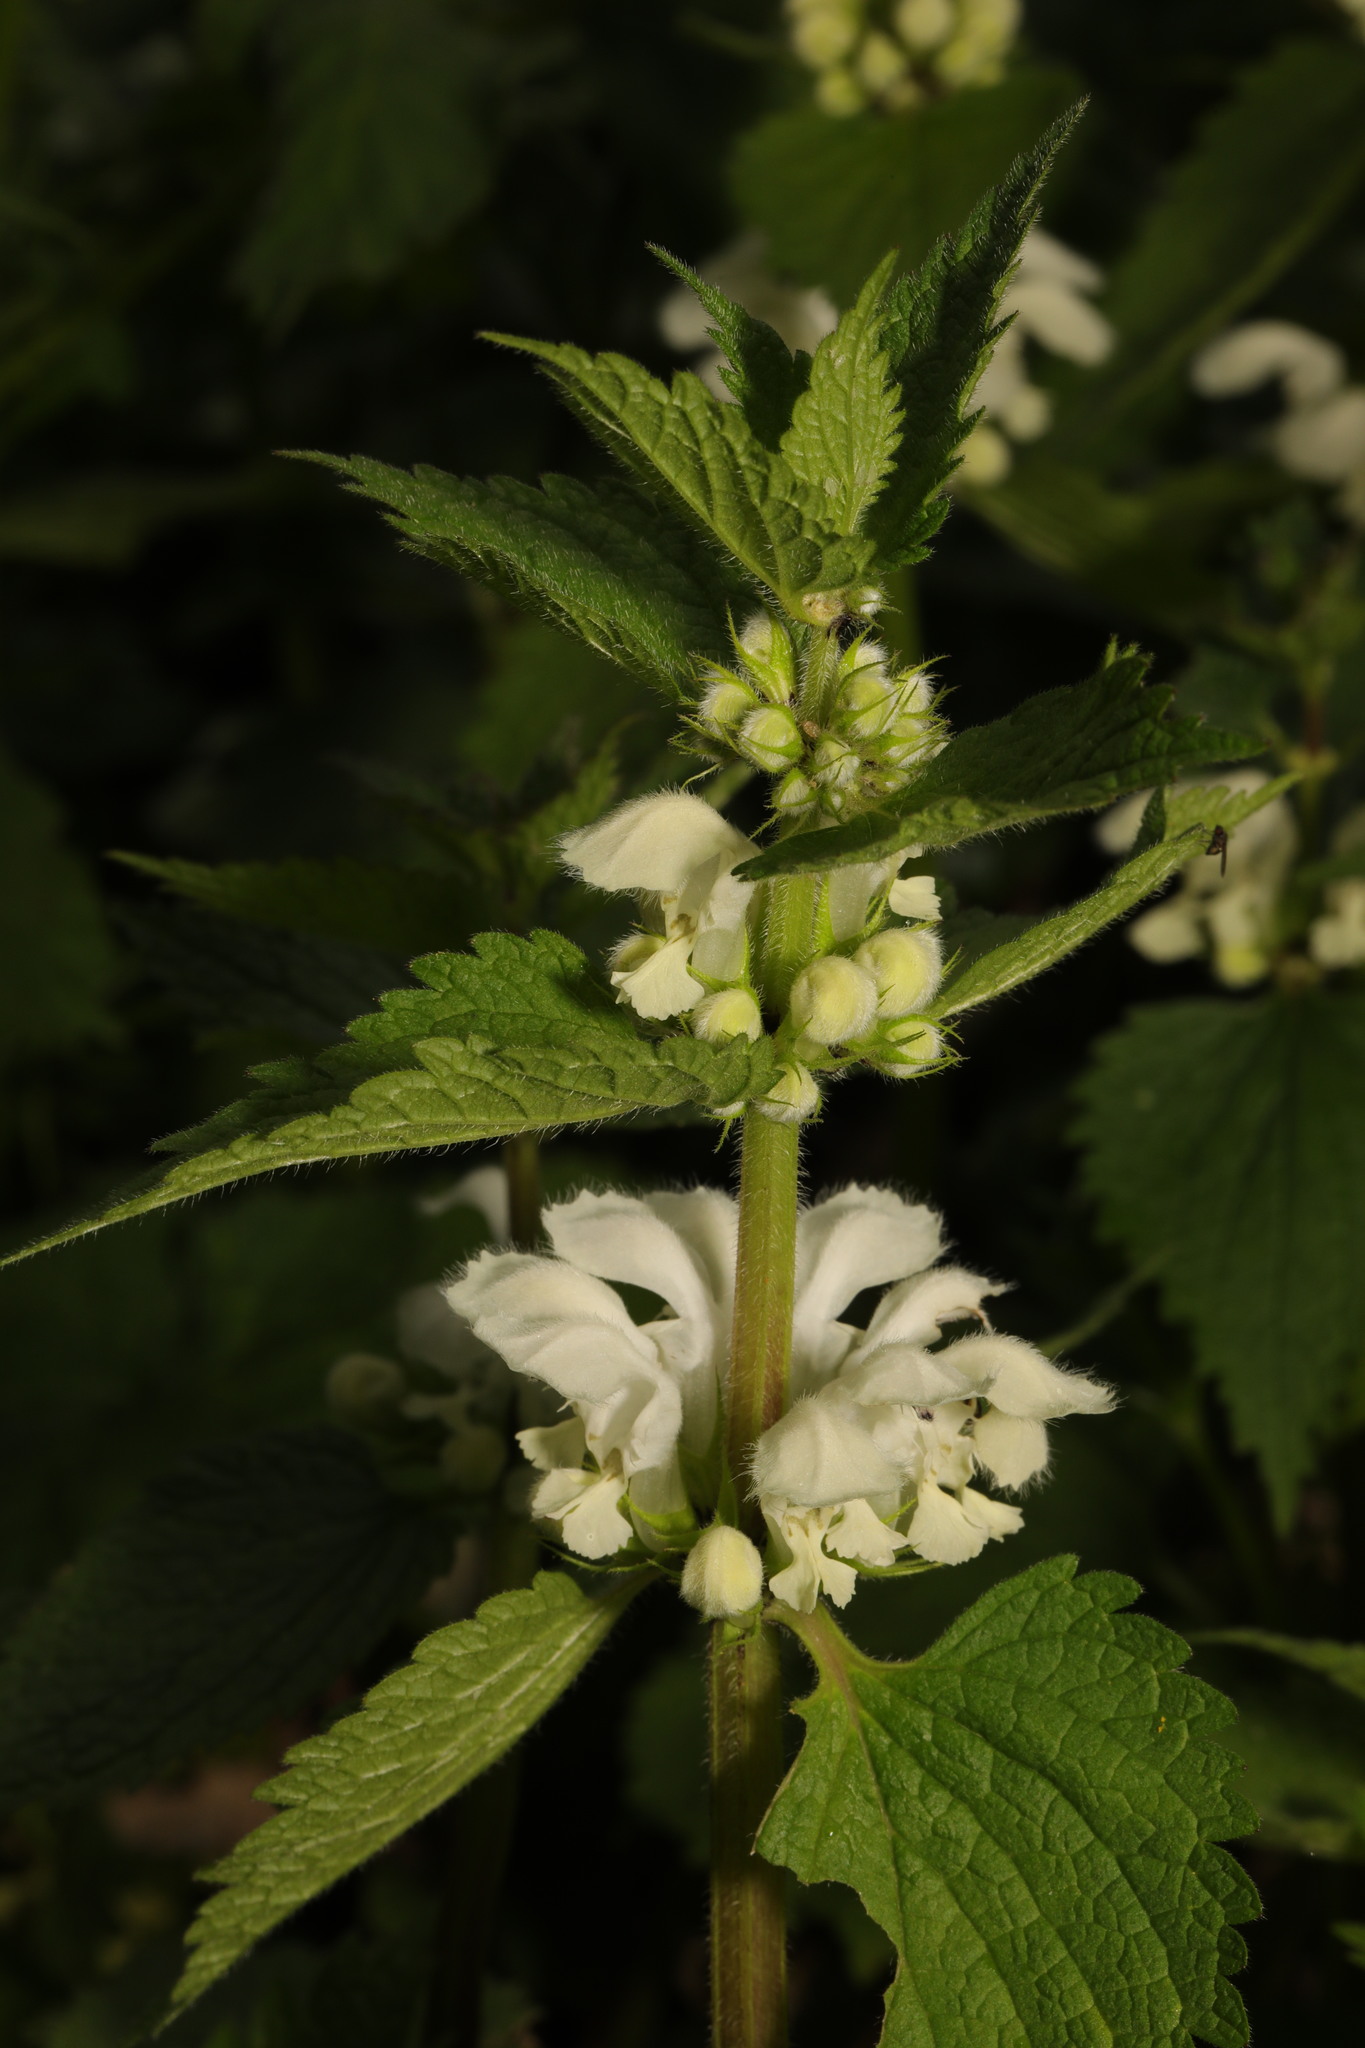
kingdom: Plantae
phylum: Tracheophyta
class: Magnoliopsida
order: Lamiales
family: Lamiaceae
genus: Lamium
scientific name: Lamium album
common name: White dead-nettle
